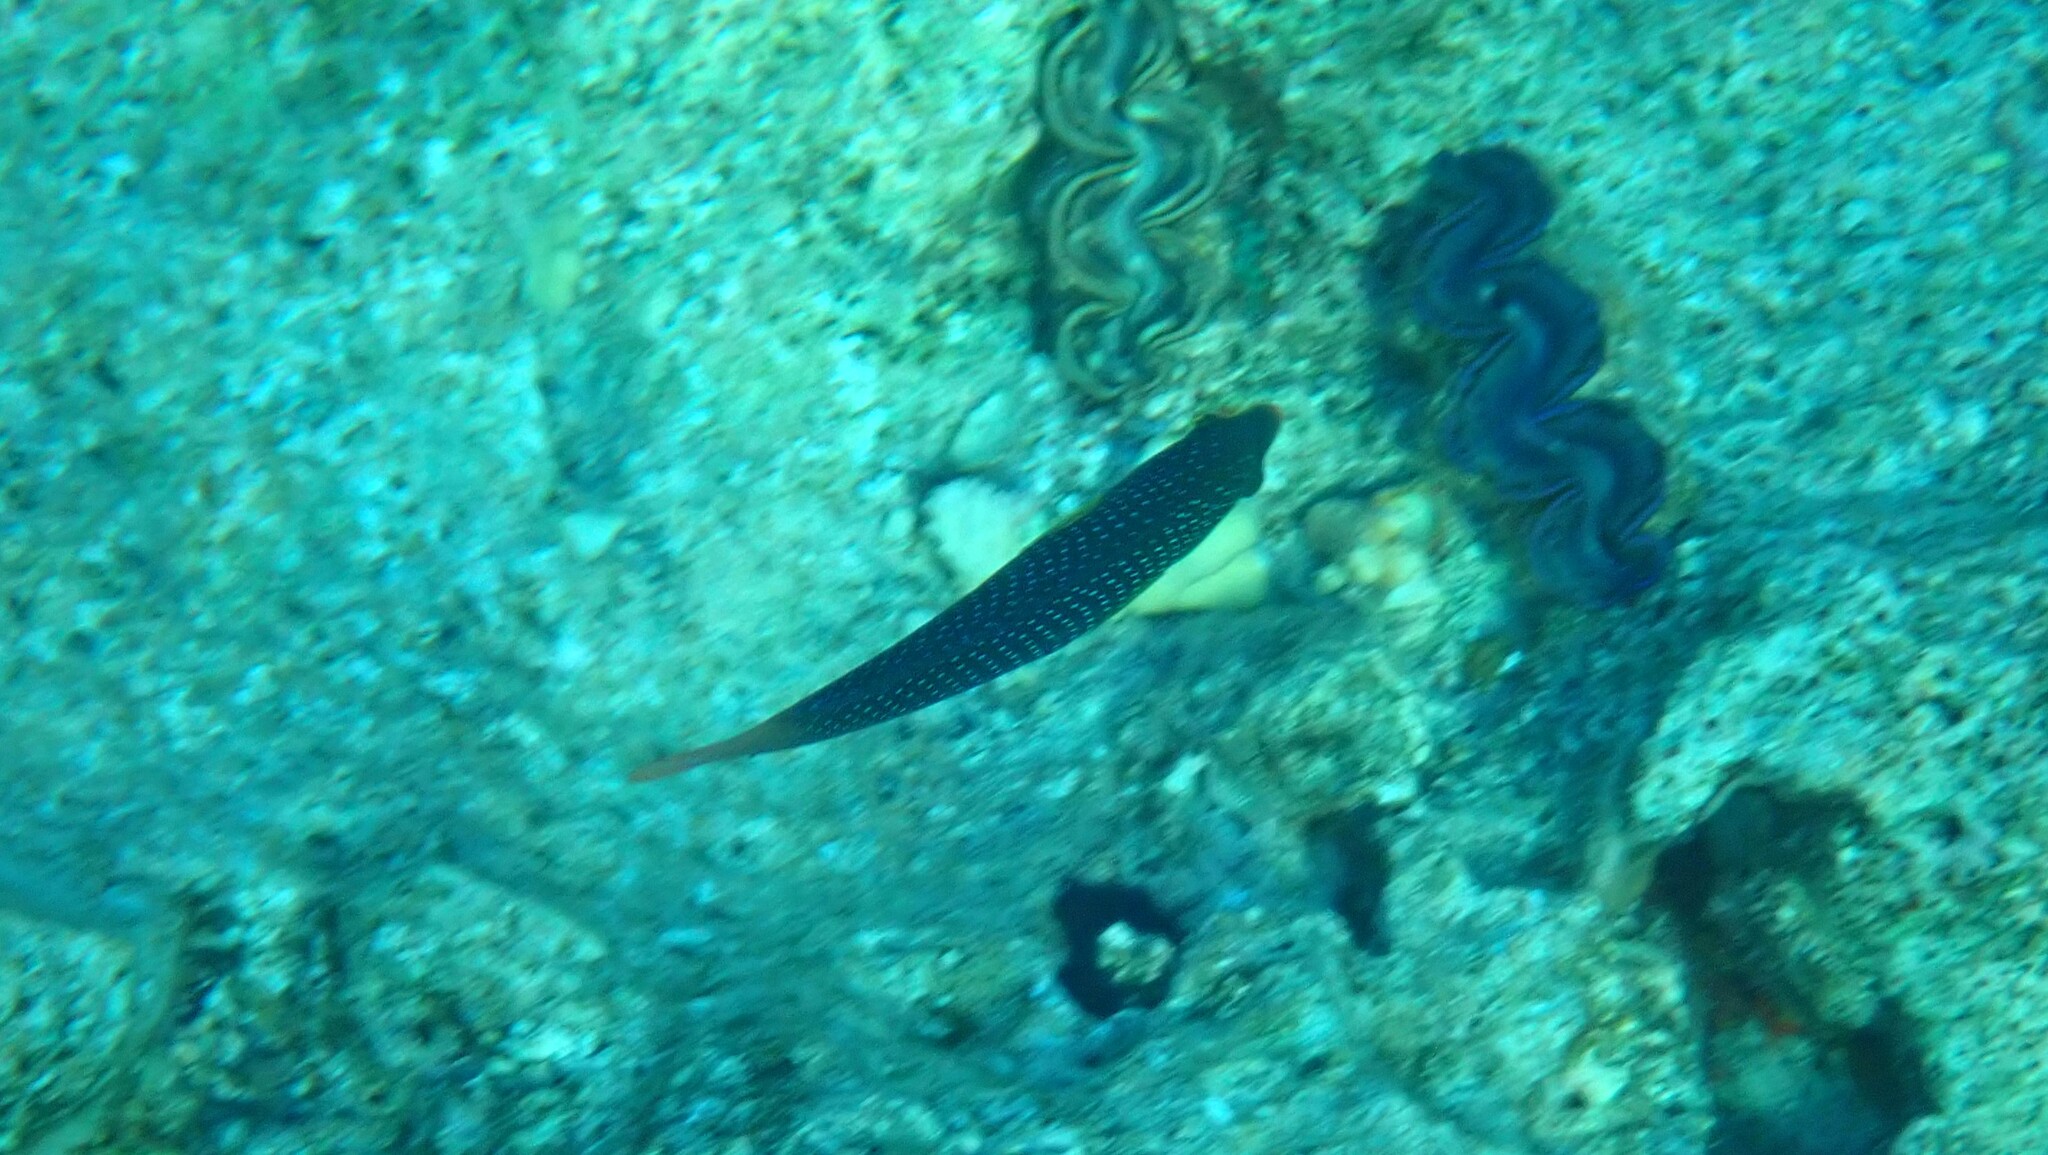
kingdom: Animalia
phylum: Chordata
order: Perciformes
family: Labridae
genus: Anampses
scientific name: Anampses twistii
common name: Yellowbreasted wrasse
